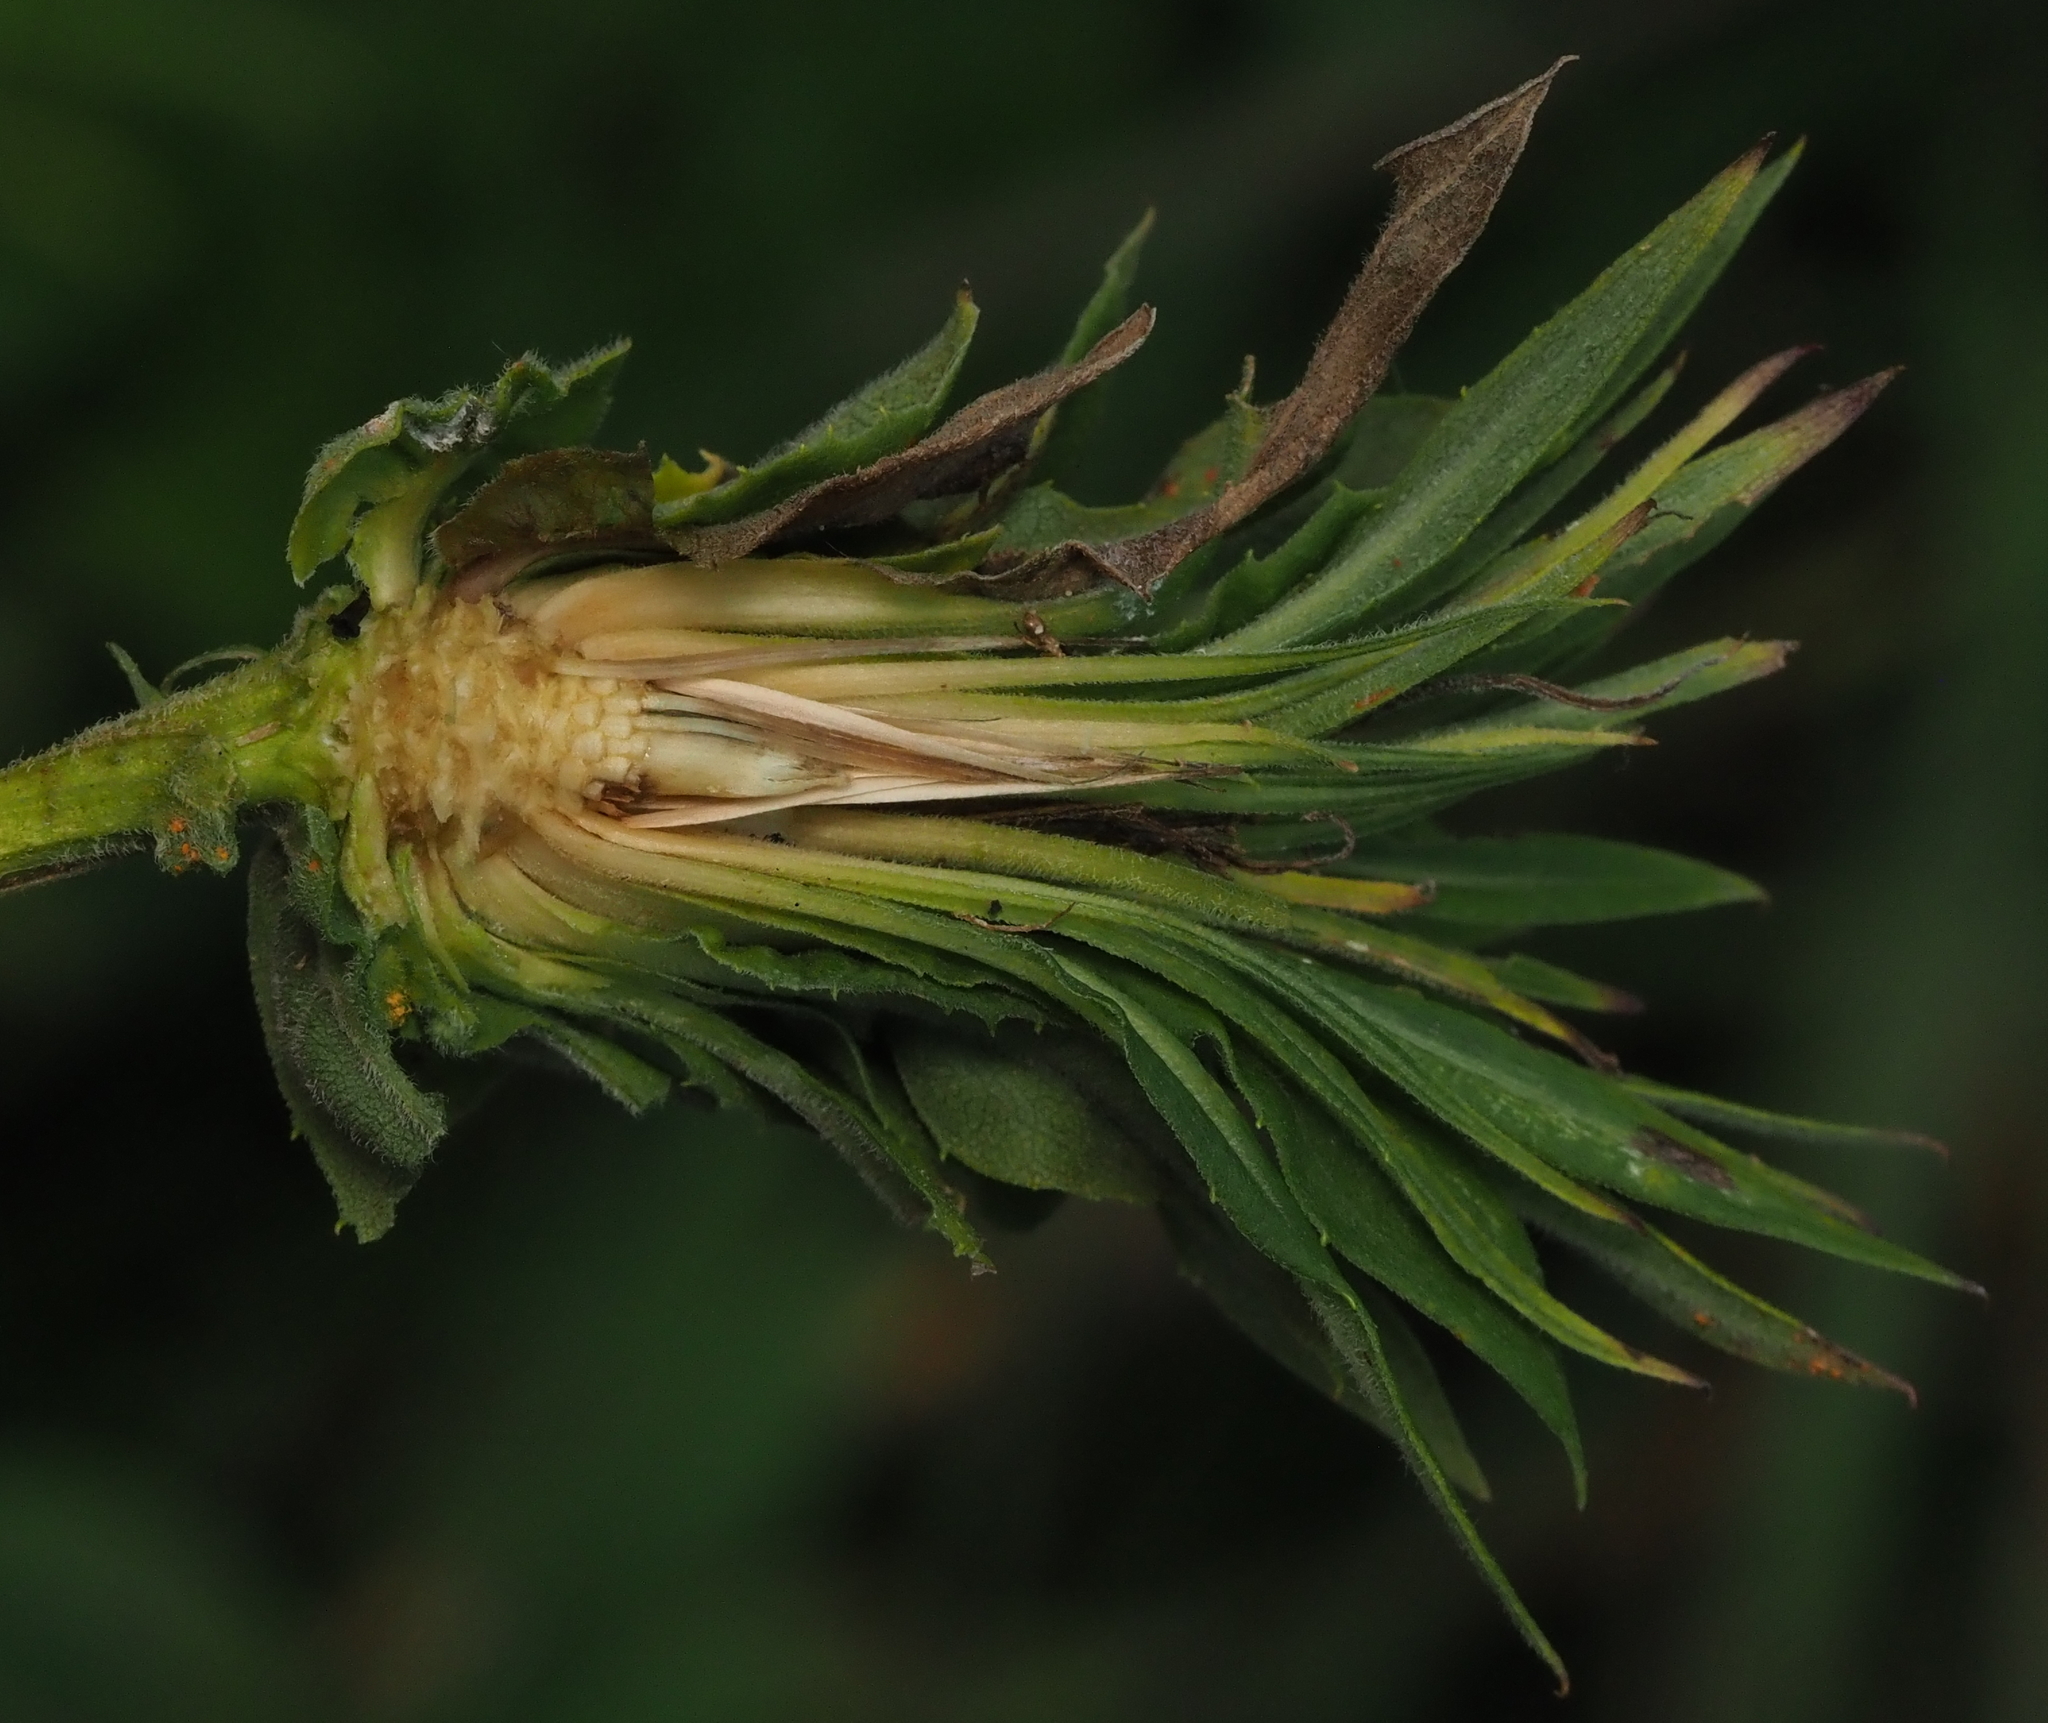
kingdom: Animalia
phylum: Arthropoda
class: Insecta
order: Diptera
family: Cecidomyiidae
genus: Rhopalomyia
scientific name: Rhopalomyia solidaginis
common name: Goldenrod bunch gall midge
